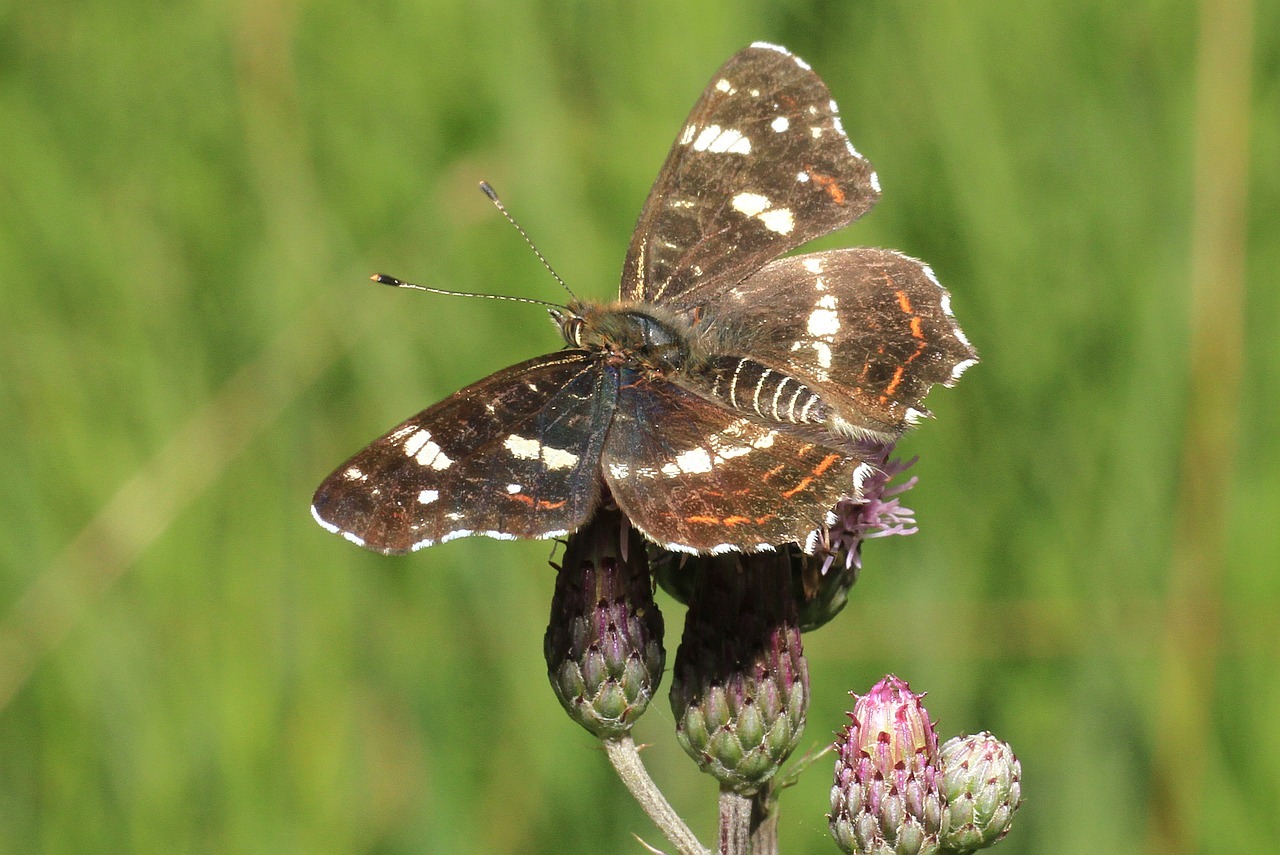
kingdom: Animalia
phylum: Arthropoda
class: Insecta
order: Lepidoptera
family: Nymphalidae
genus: Araschnia
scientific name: Araschnia levana
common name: Map butterfly
